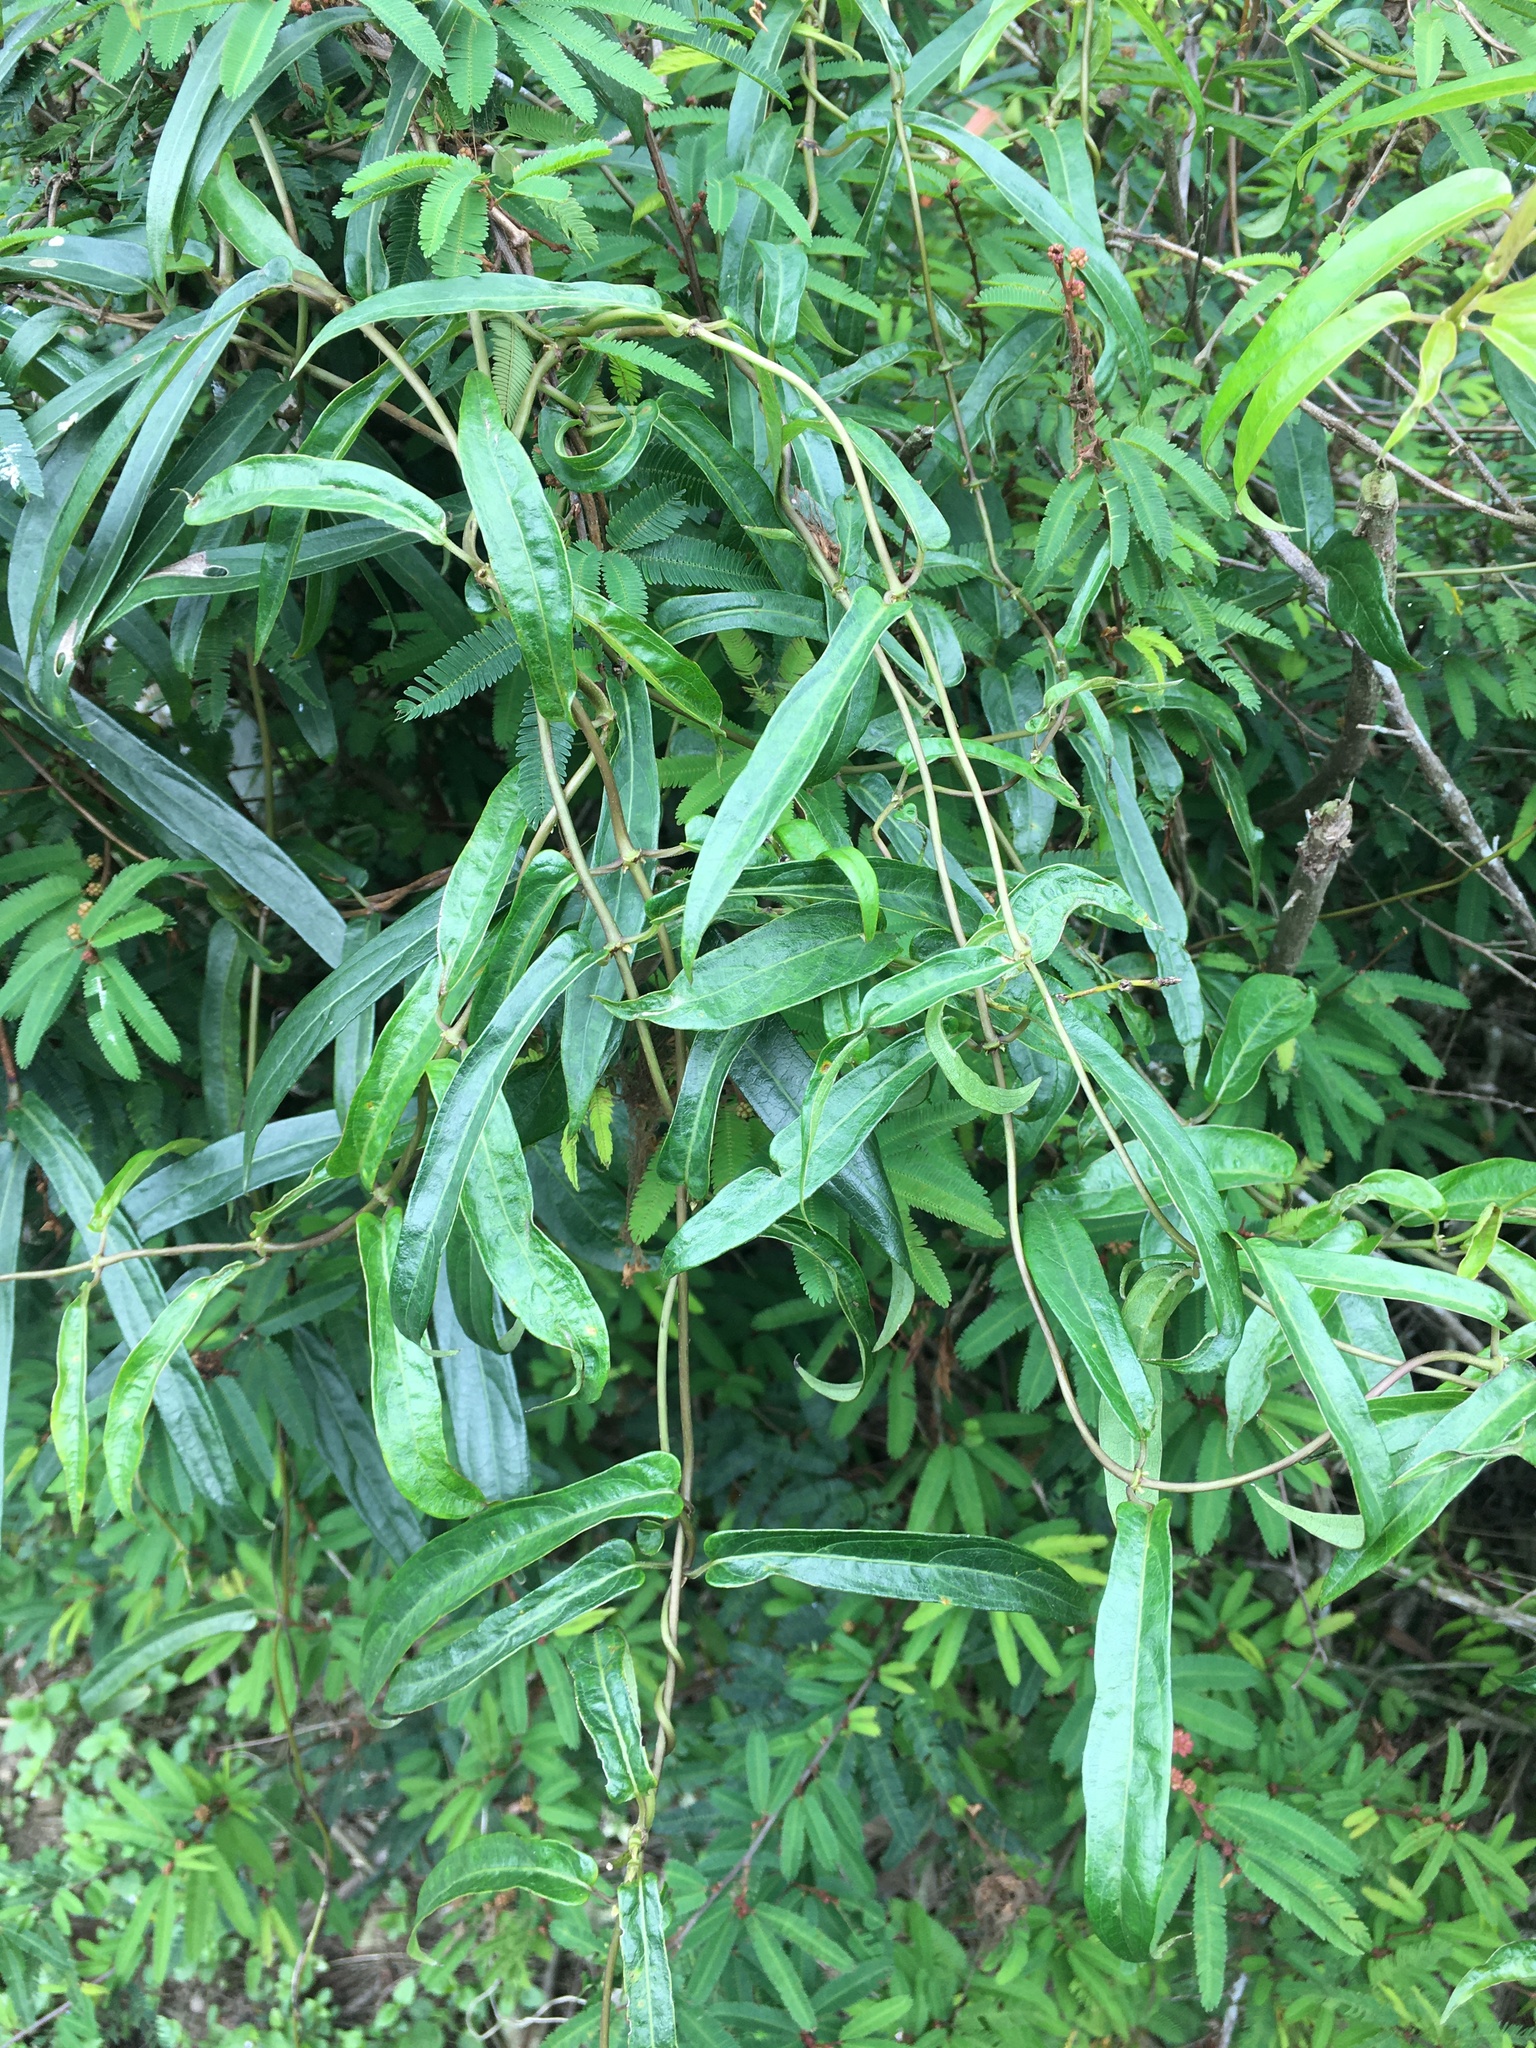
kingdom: Plantae
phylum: Tracheophyta
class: Magnoliopsida
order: Gentianales
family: Rubiaceae
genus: Paederia
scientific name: Paederia foetida
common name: Stinkvine
